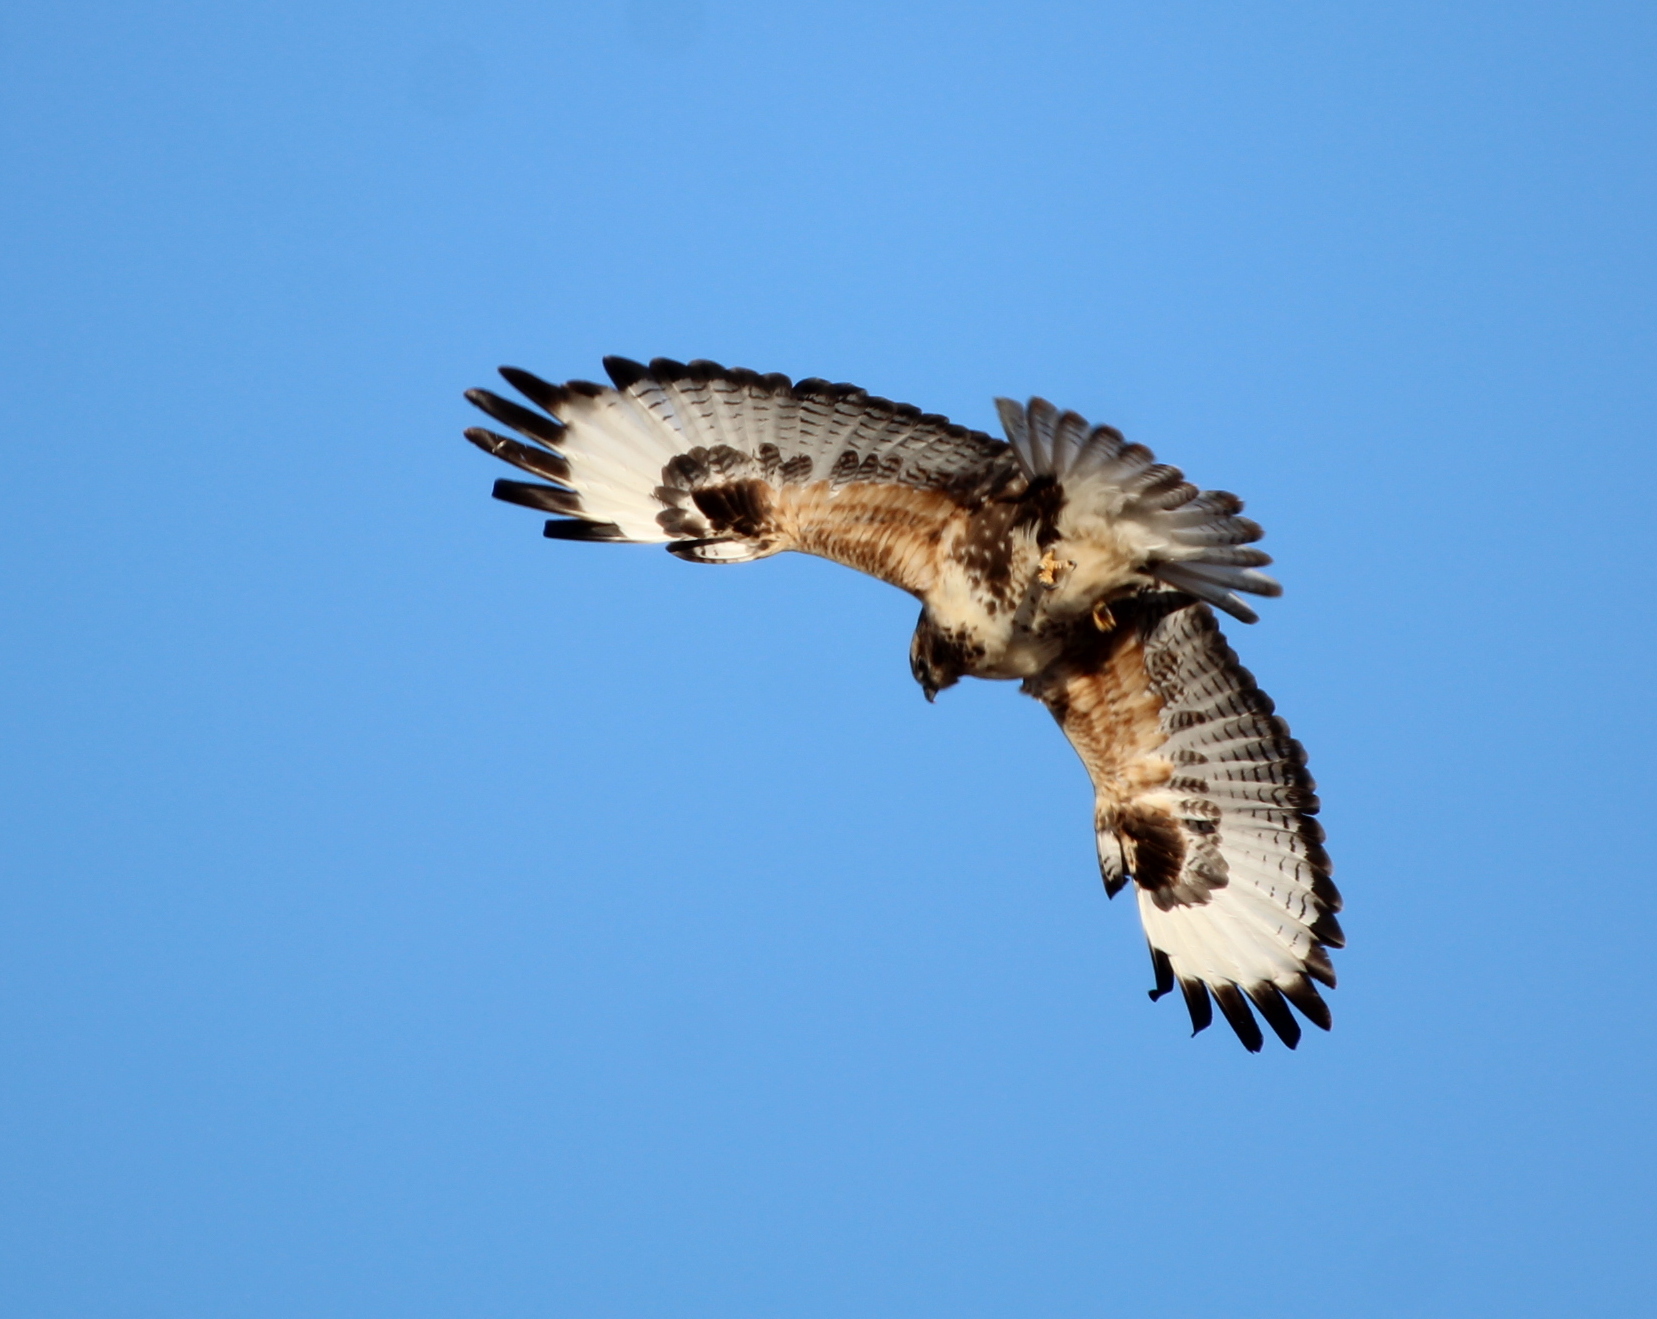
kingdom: Animalia
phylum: Chordata
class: Aves
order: Accipitriformes
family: Accipitridae
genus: Buteo
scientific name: Buteo hemilasius
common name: Upland buzzard
